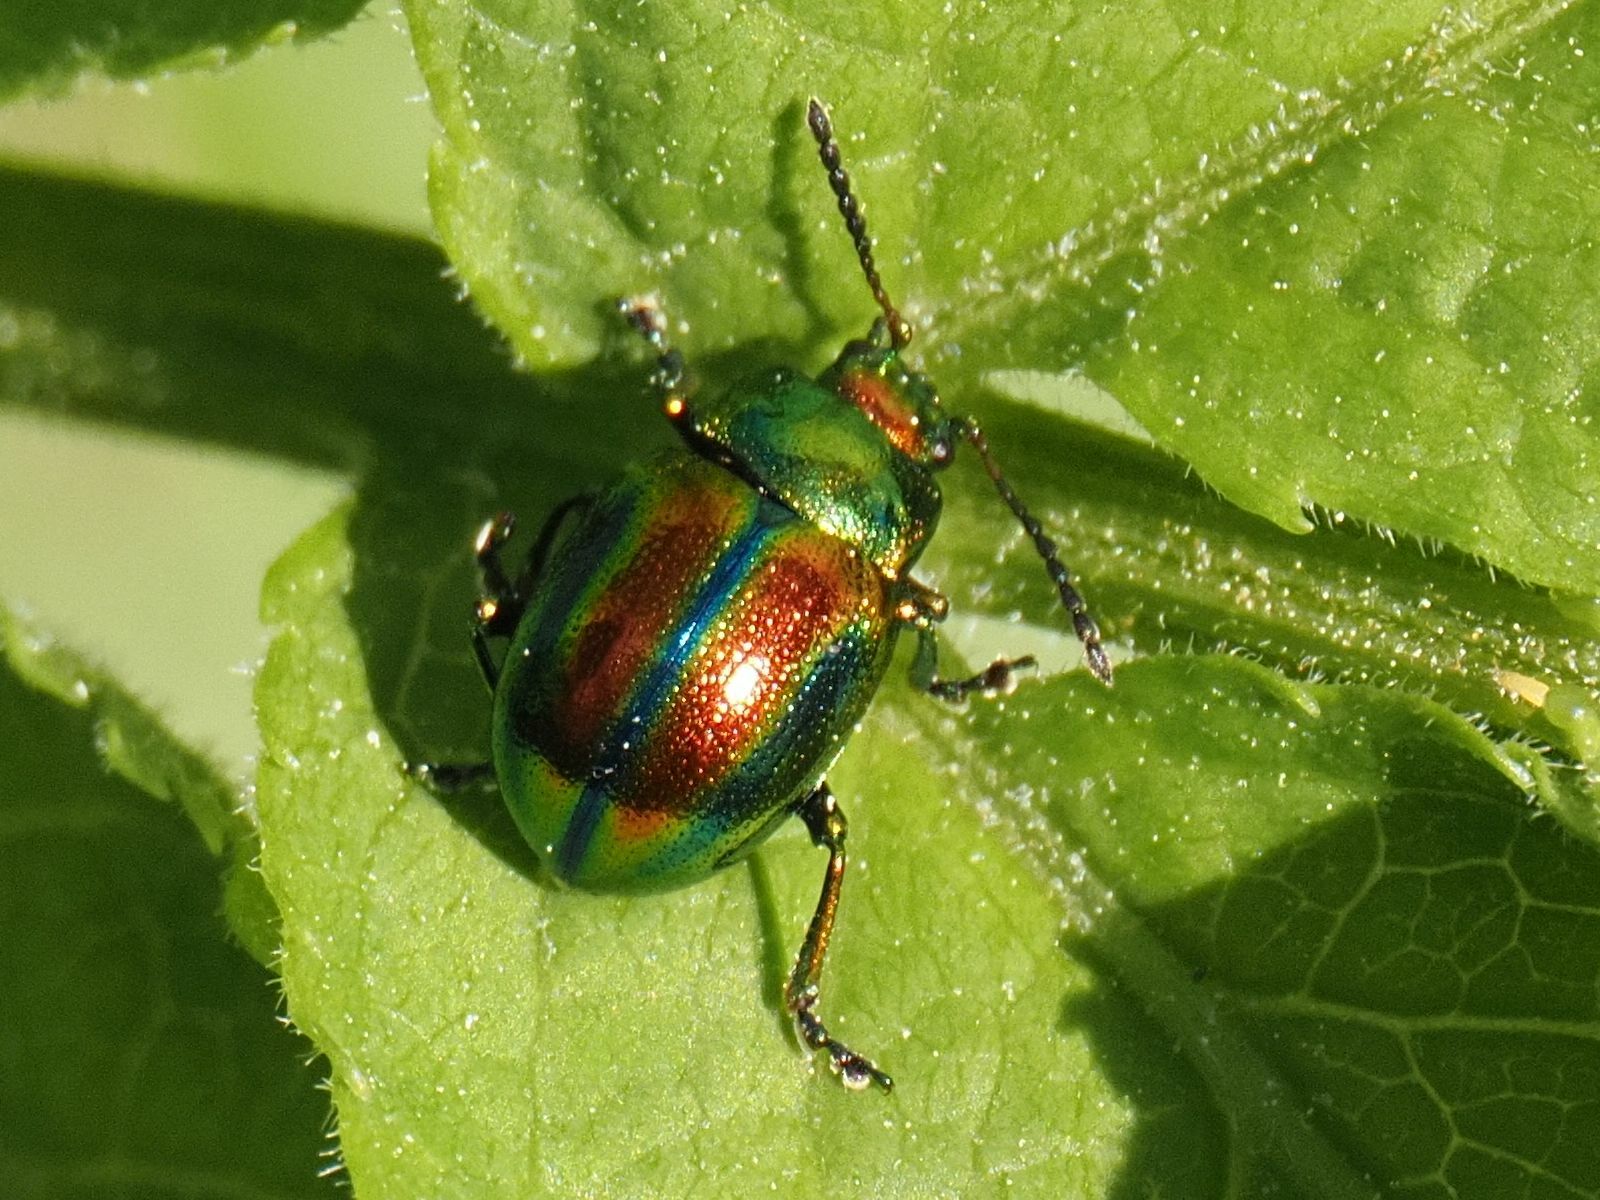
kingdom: Animalia
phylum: Arthropoda
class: Insecta
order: Coleoptera
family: Chrysomelidae
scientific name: Chrysomelidae
